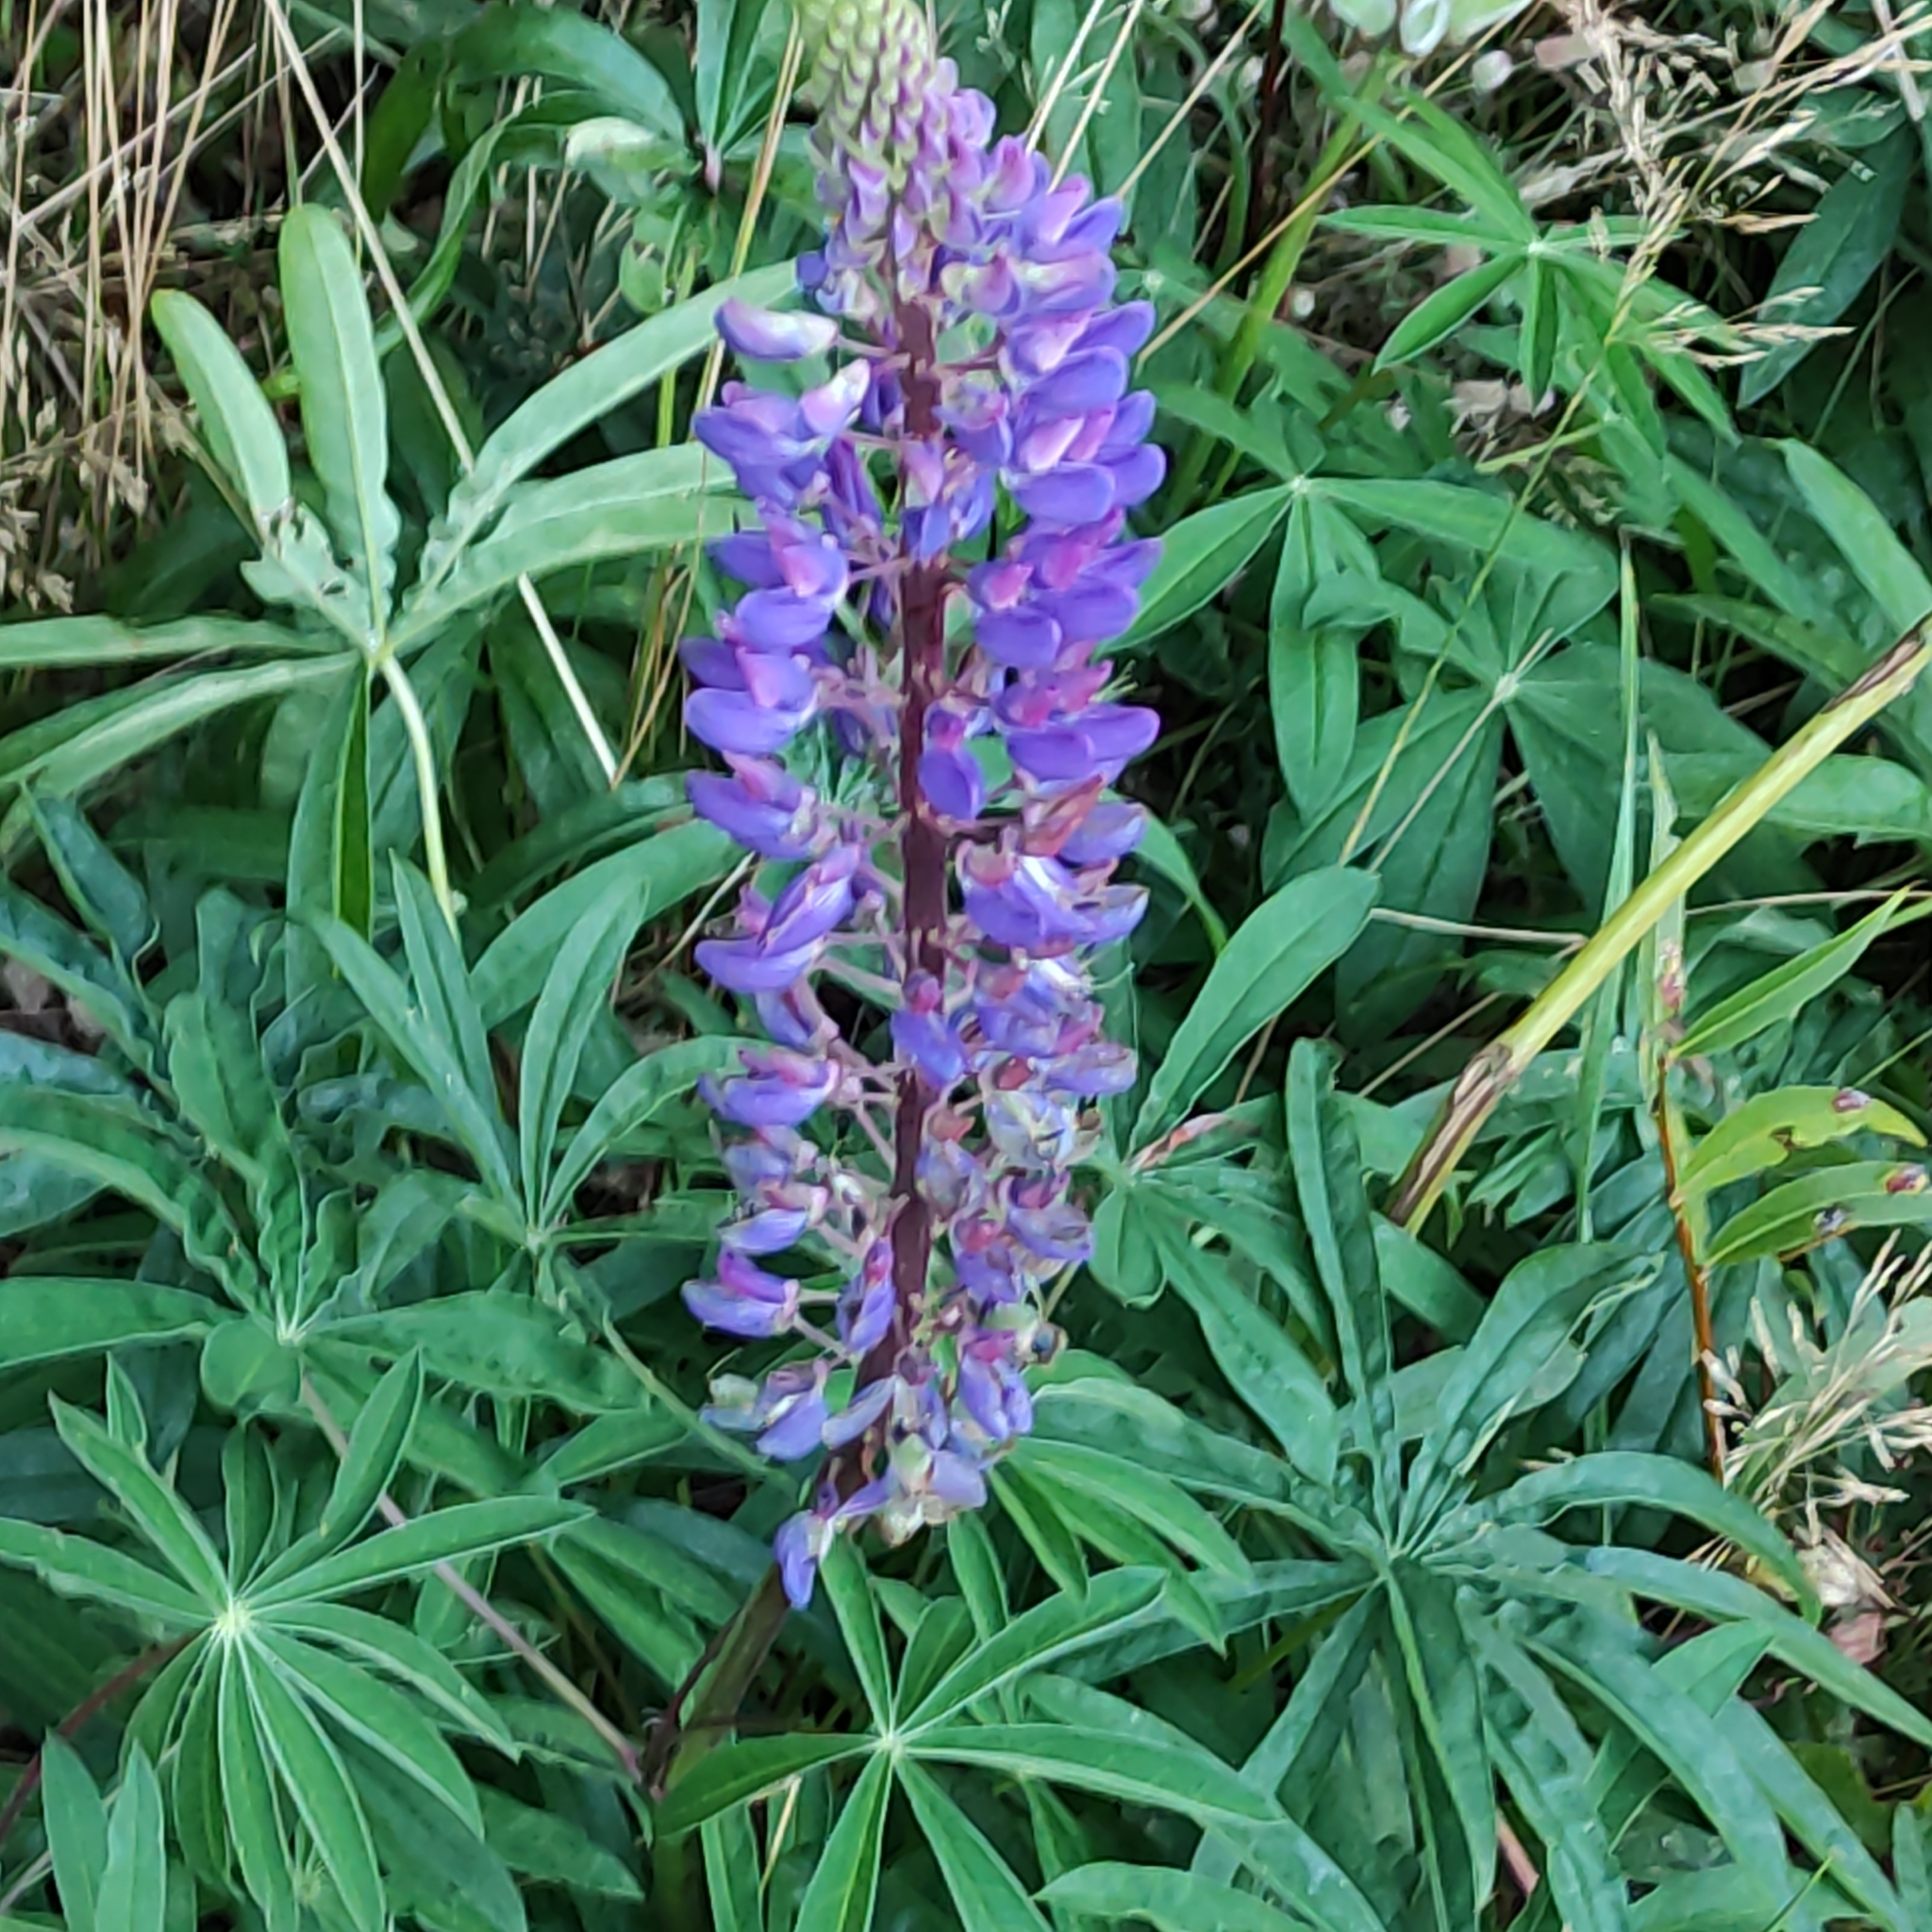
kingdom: Plantae
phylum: Tracheophyta
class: Magnoliopsida
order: Fabales
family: Fabaceae
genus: Lupinus
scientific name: Lupinus polyphyllus
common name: Garden lupin
